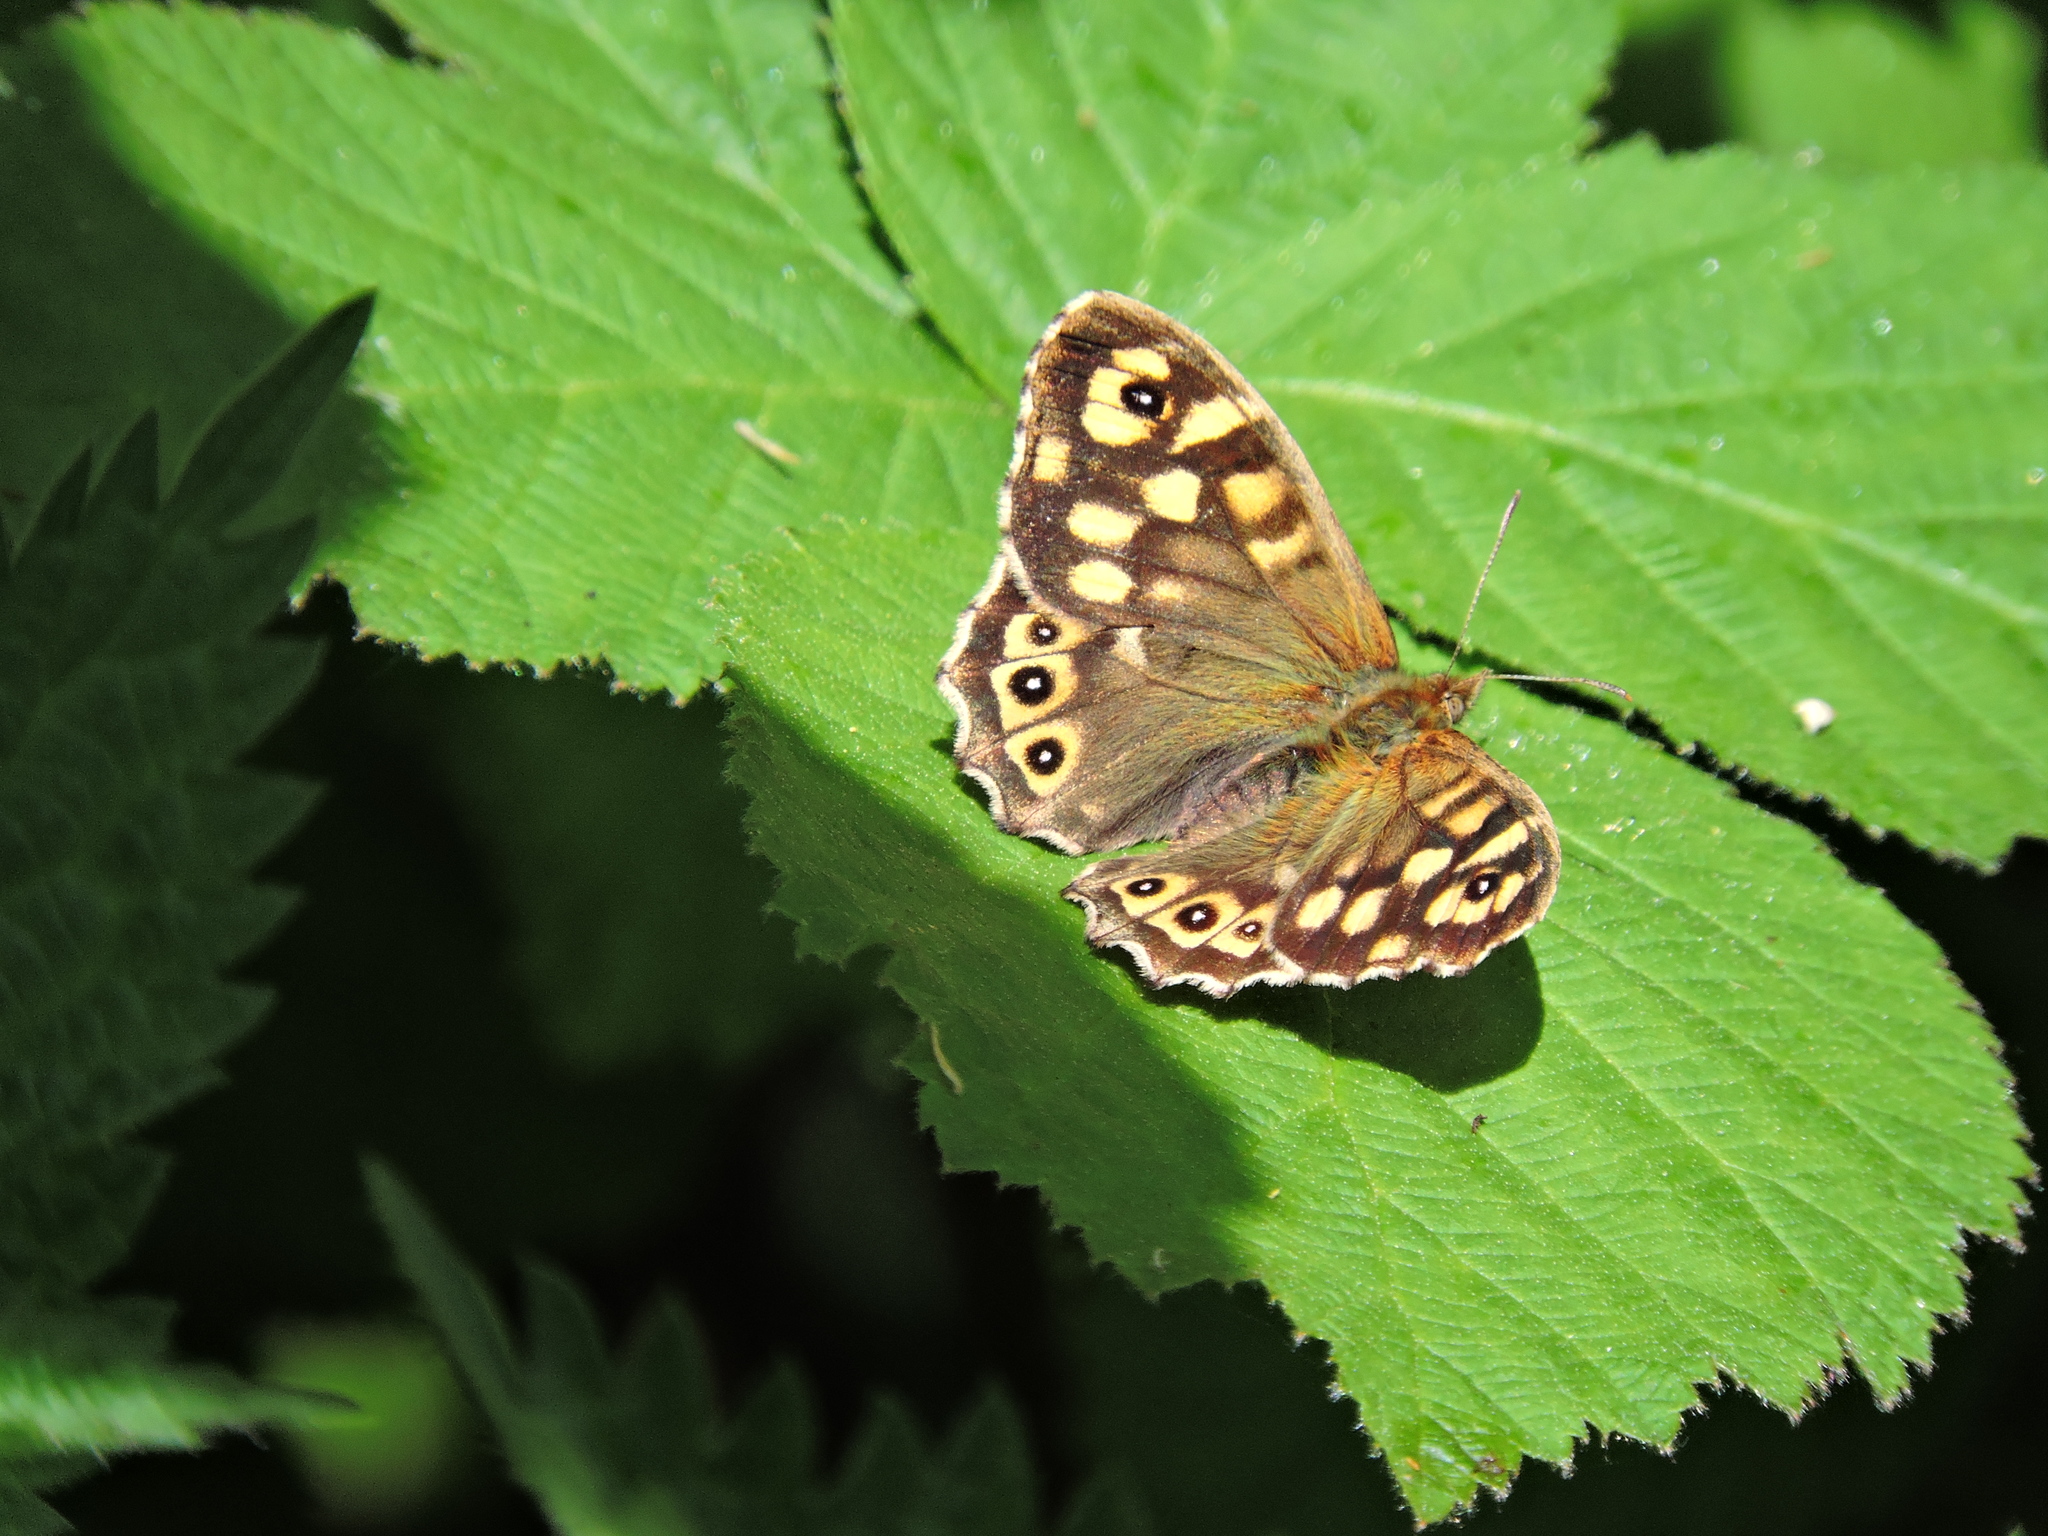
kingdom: Animalia
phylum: Arthropoda
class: Insecta
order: Lepidoptera
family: Nymphalidae
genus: Pararge
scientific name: Pararge aegeria
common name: Speckled wood
